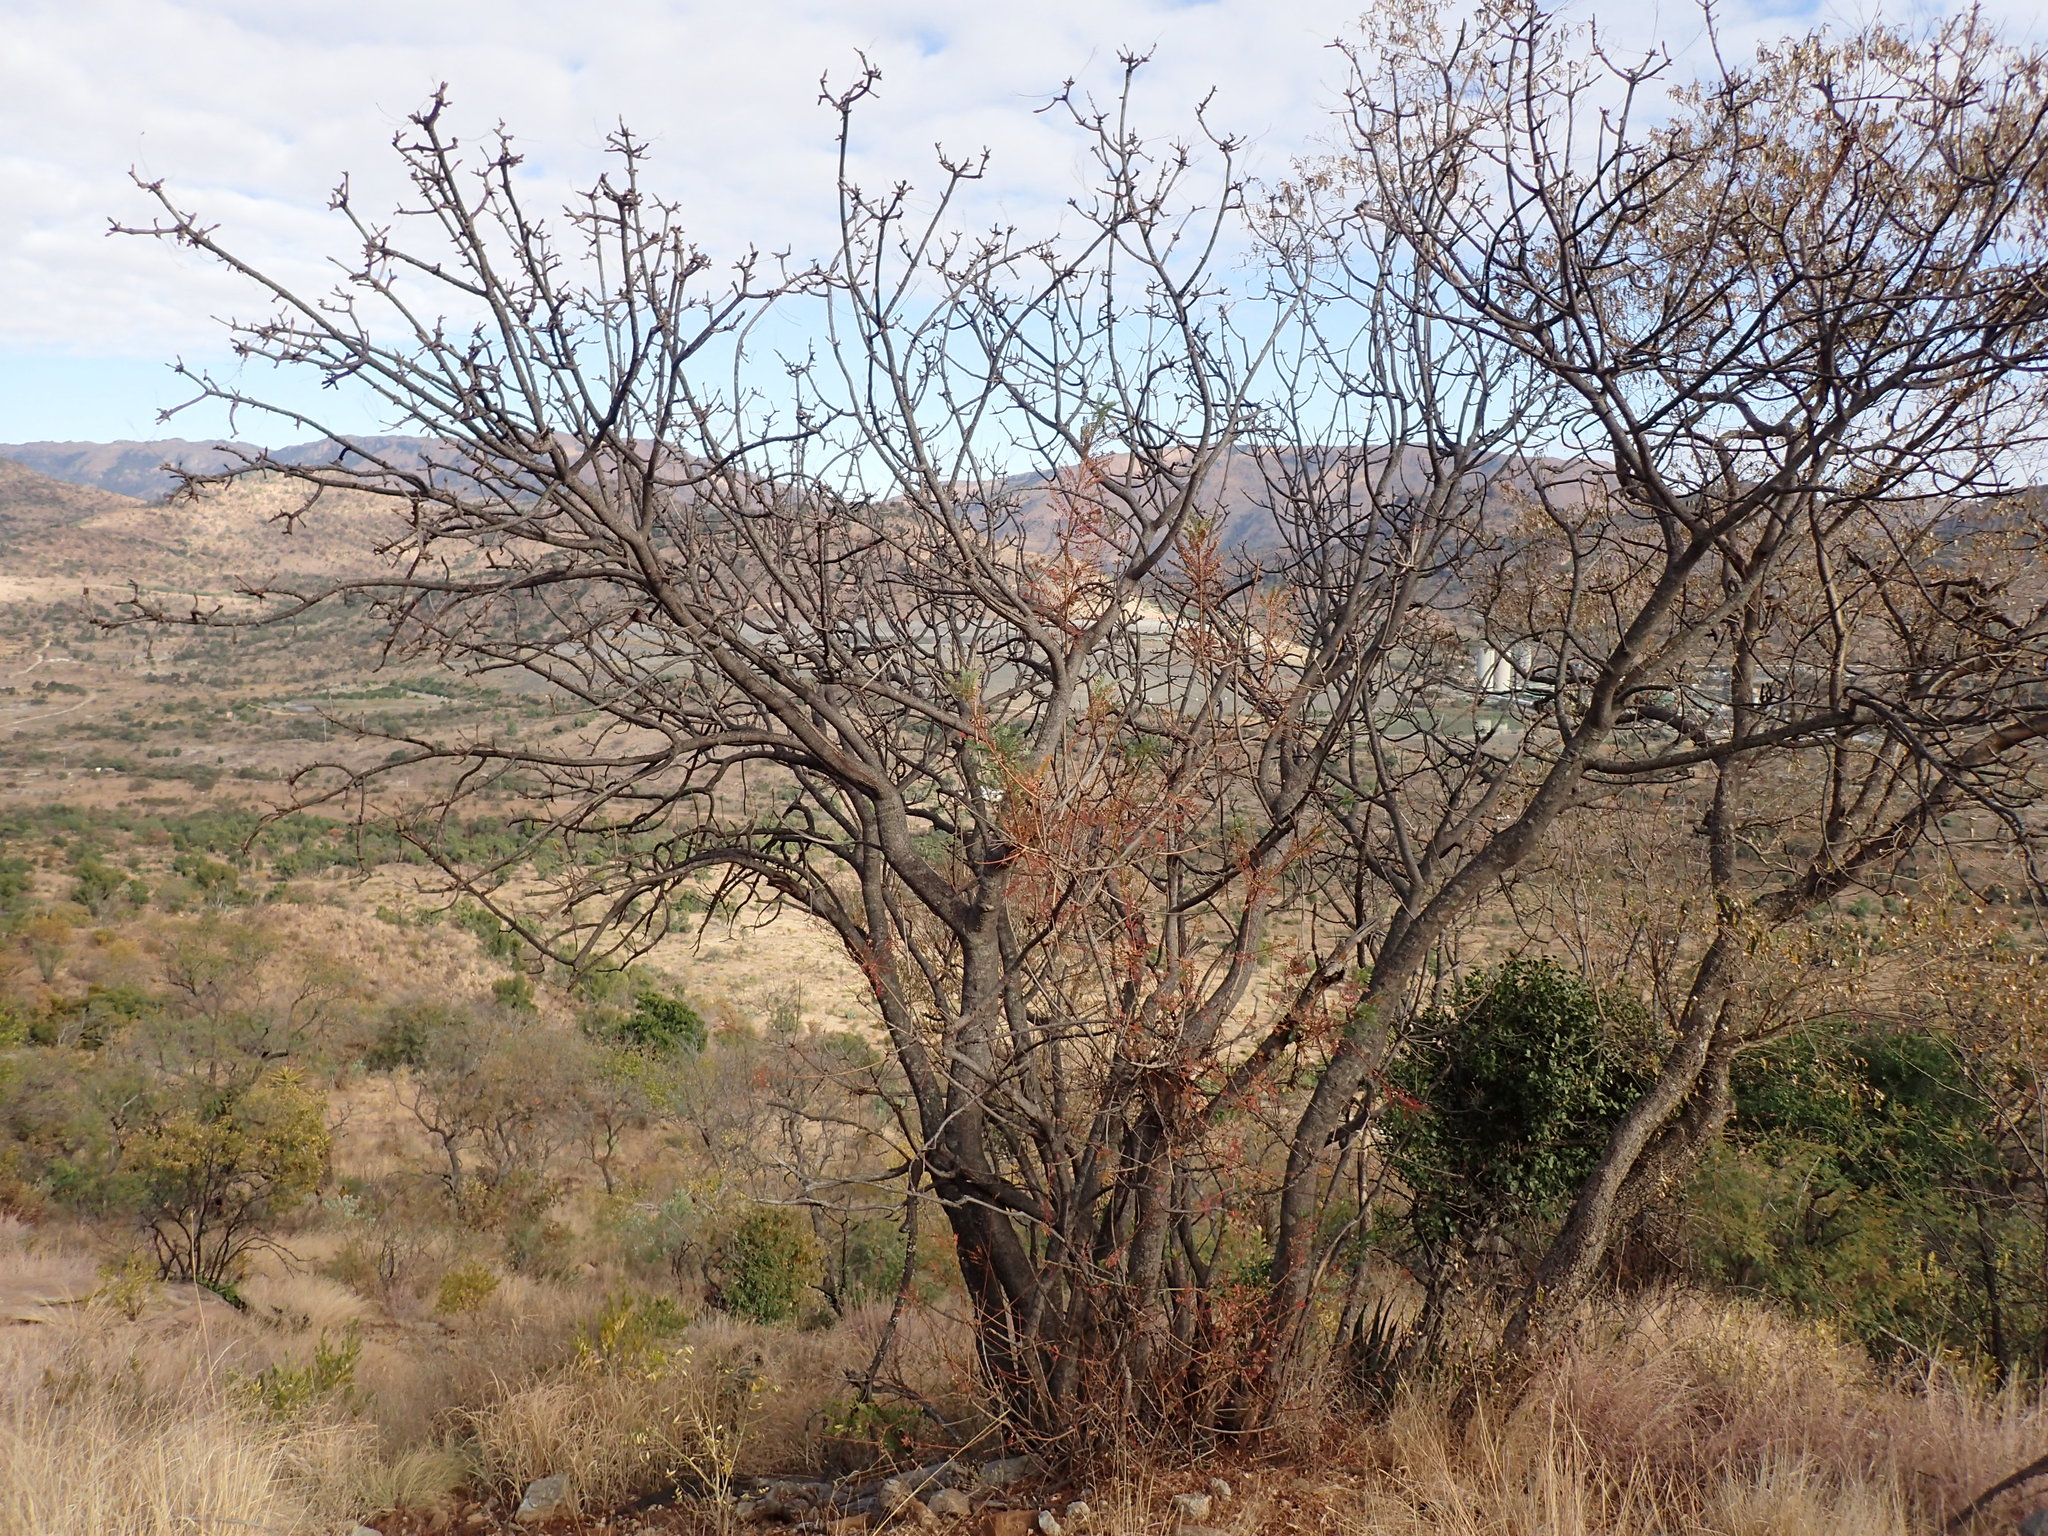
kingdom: Plantae
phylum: Tracheophyta
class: Magnoliopsida
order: Sapindales
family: Kirkiaceae
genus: Kirkia
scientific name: Kirkia wilmsii
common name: Mountain seringa
